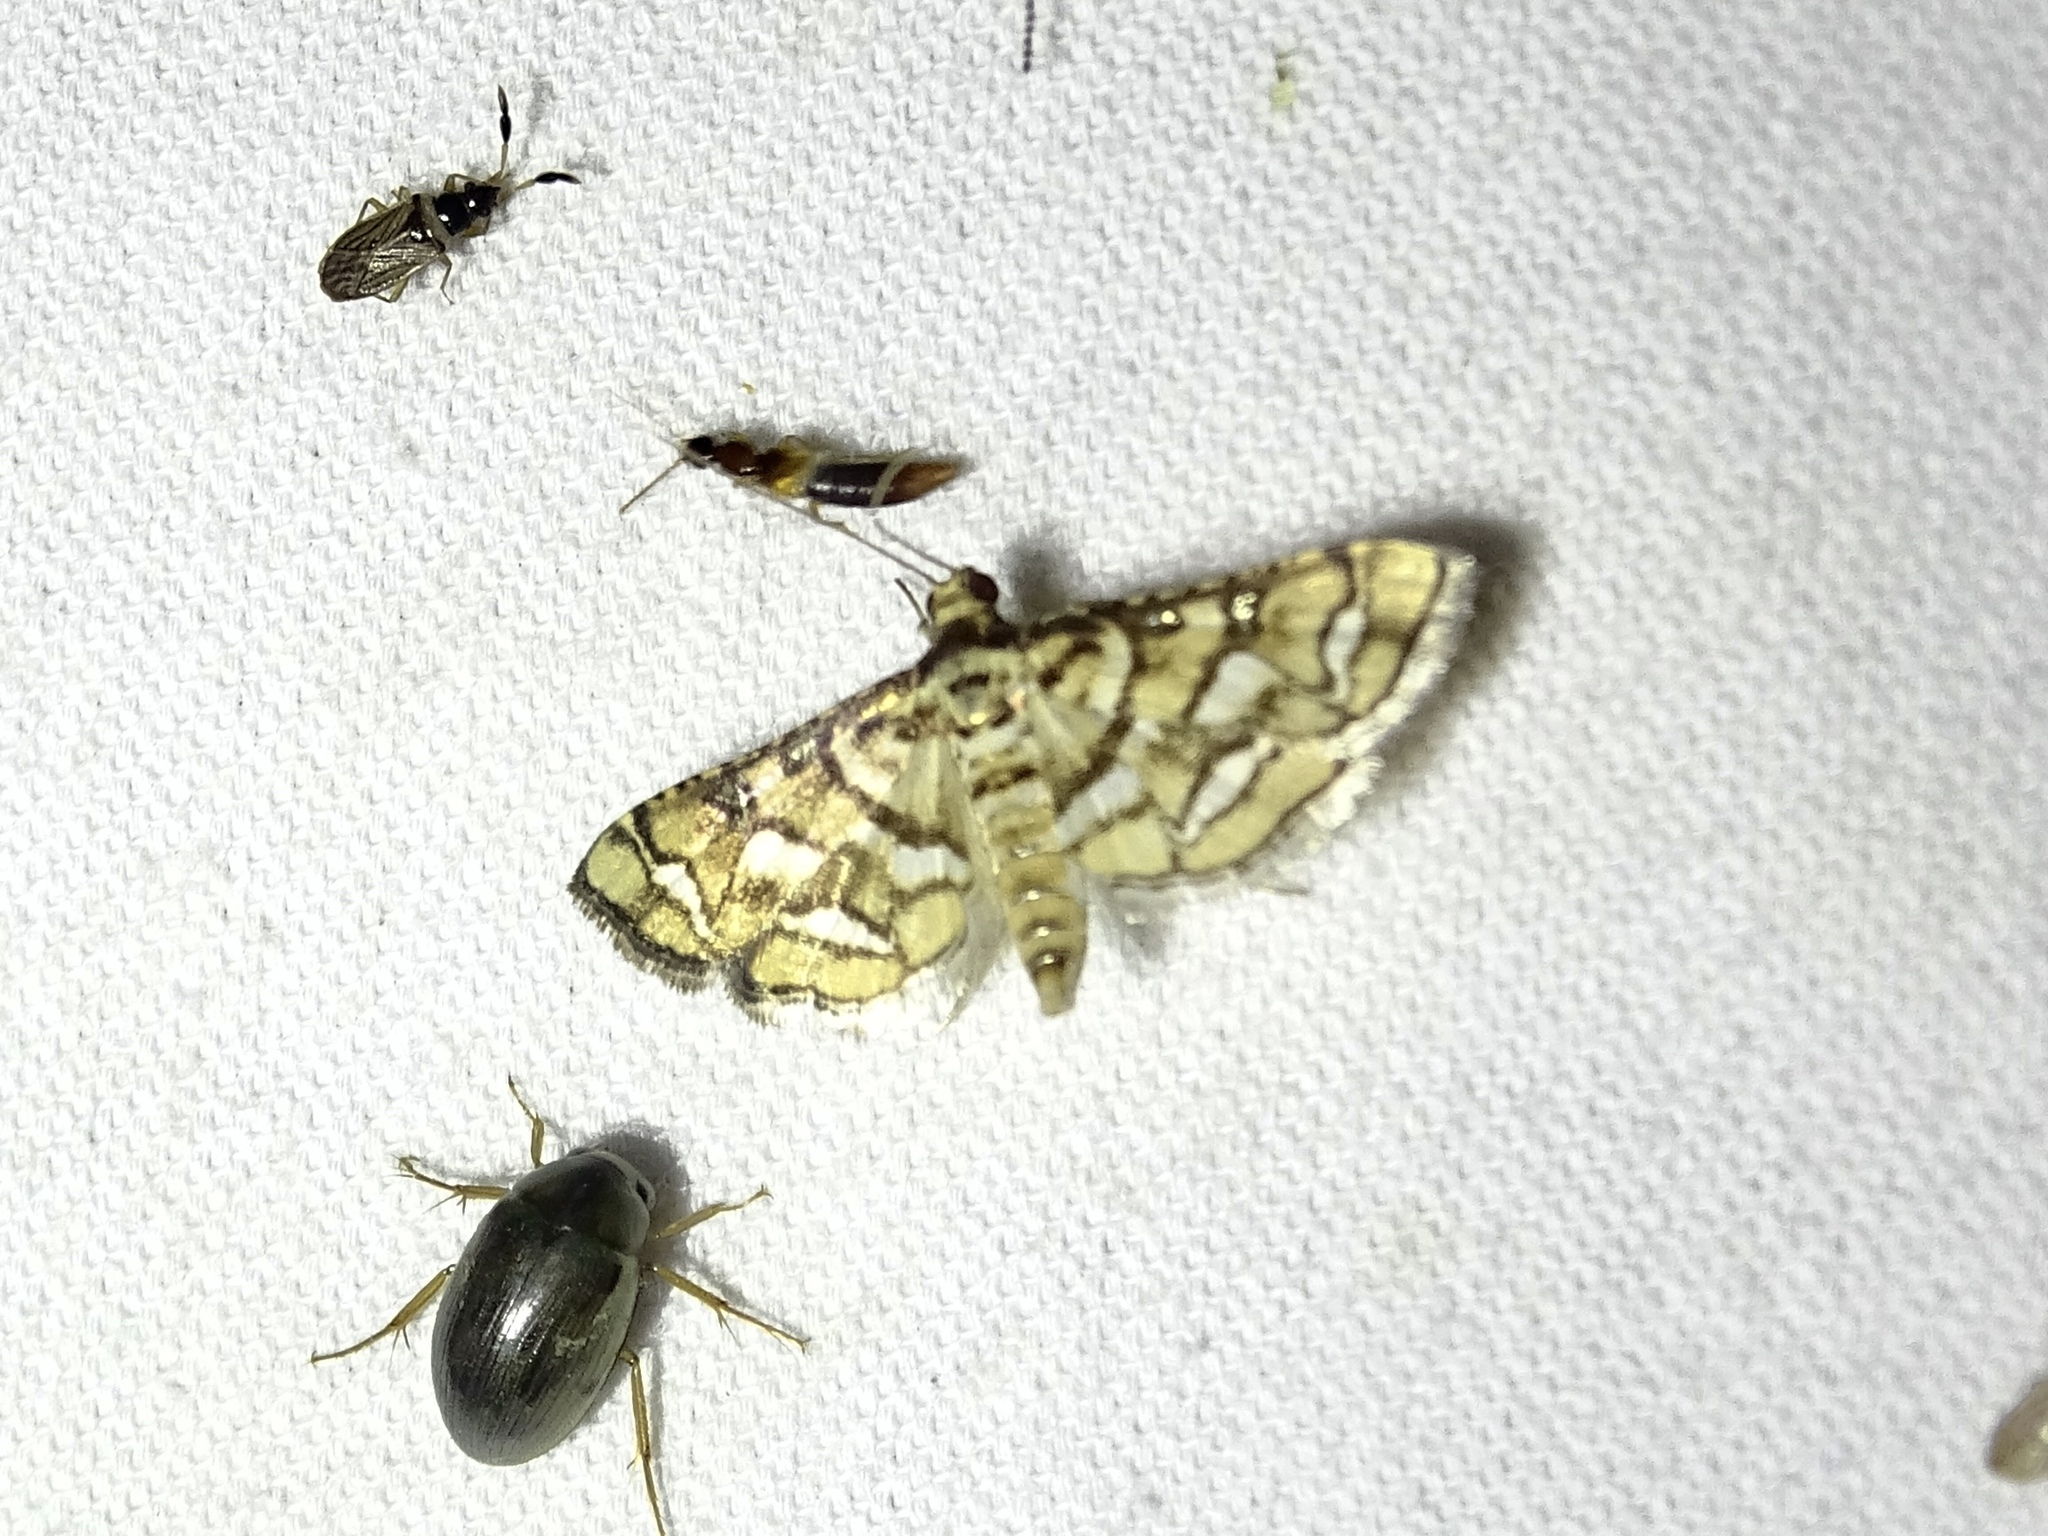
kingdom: Animalia
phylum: Arthropoda
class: Insecta
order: Lepidoptera
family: Crambidae
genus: Hileithia
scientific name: Hileithia magualis
